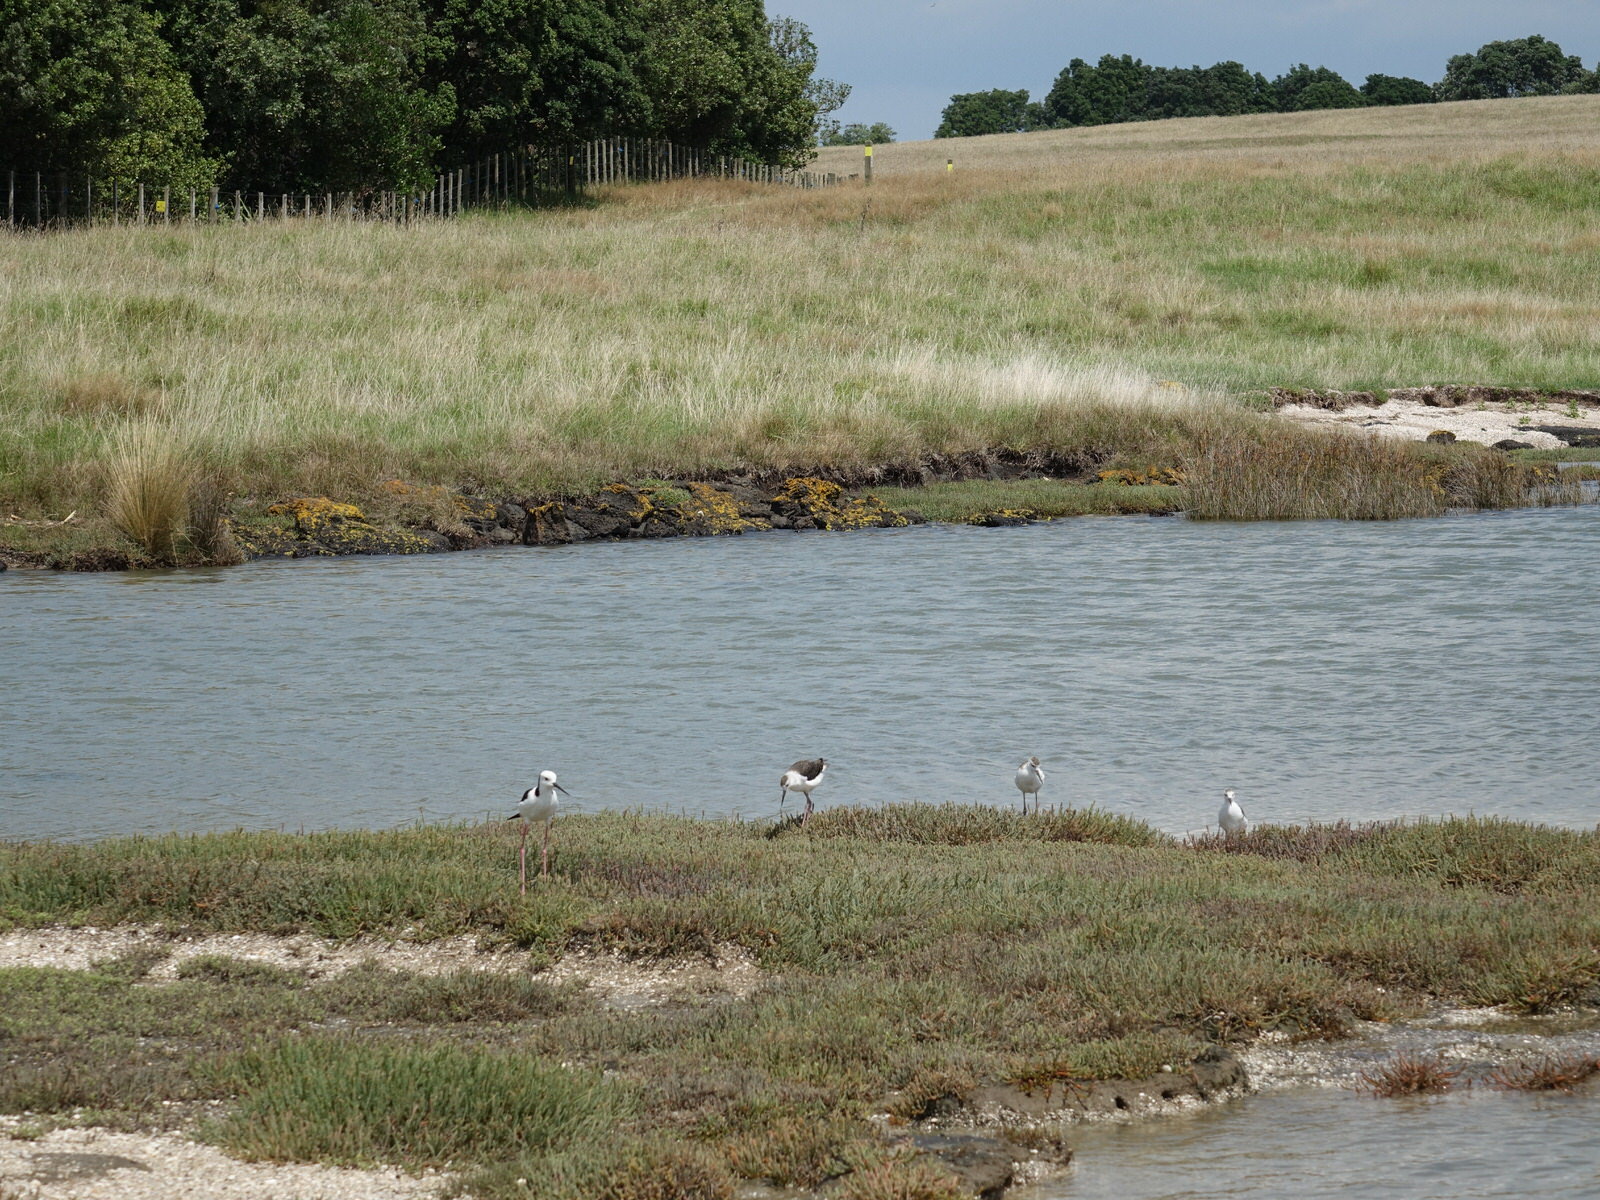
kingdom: Animalia
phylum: Chordata
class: Aves
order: Charadriiformes
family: Recurvirostridae
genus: Himantopus
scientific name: Himantopus leucocephalus
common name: White-headed stilt
